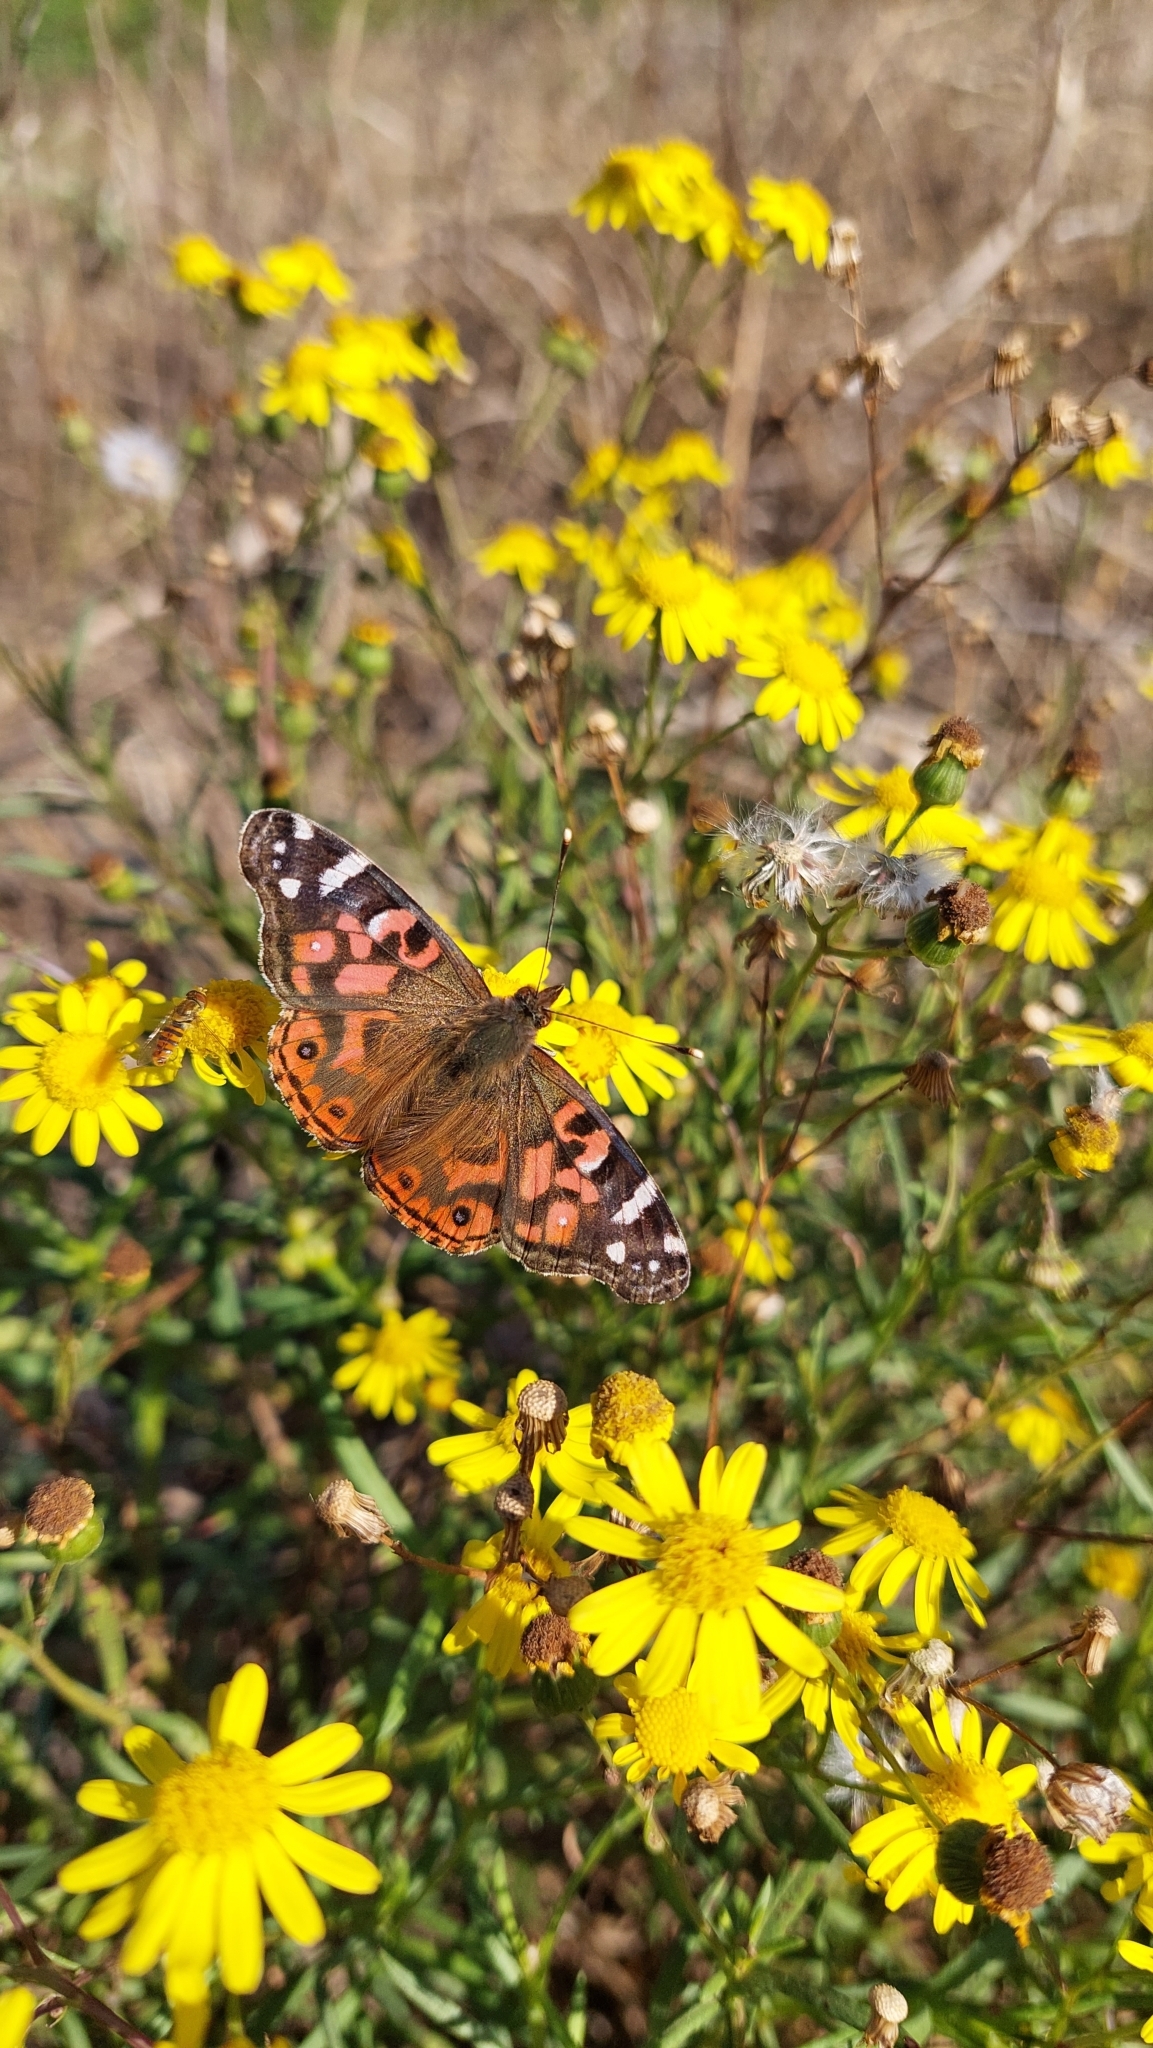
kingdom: Animalia
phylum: Arthropoda
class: Insecta
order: Lepidoptera
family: Nymphalidae
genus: Vanessa
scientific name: Vanessa braziliensis
